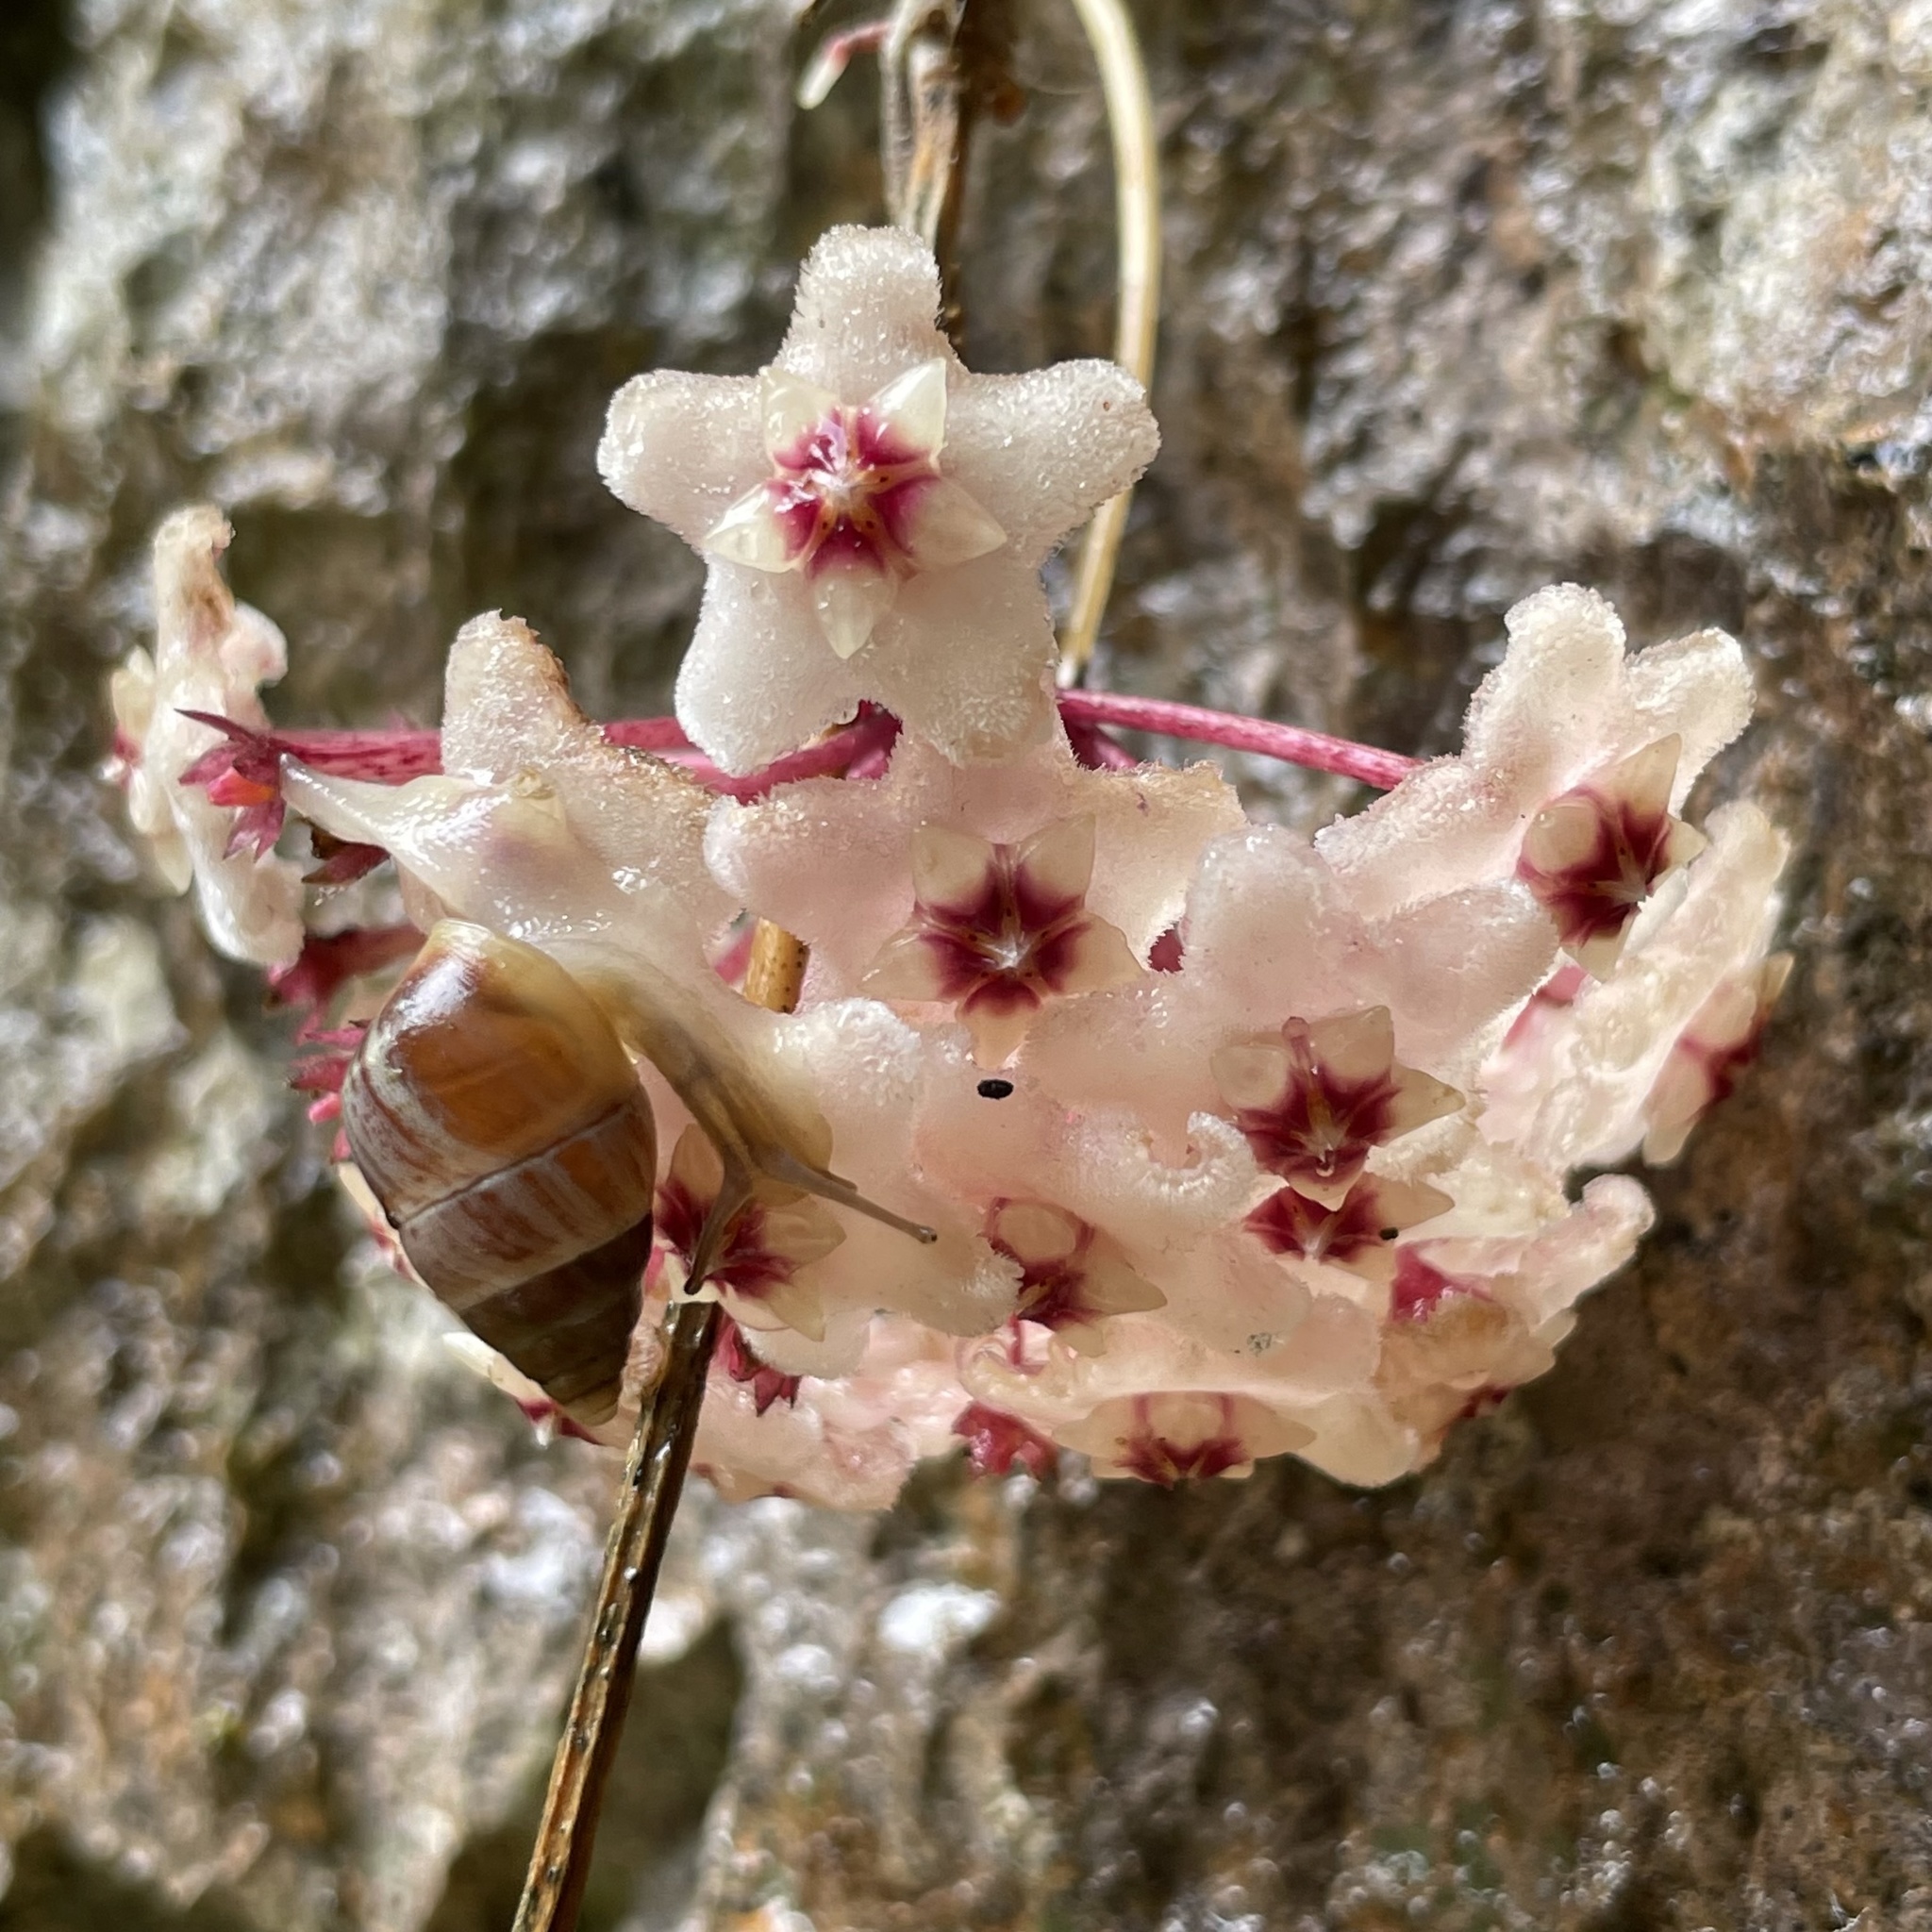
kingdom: Animalia
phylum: Mollusca
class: Gastropoda
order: Stylommatophora
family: Enidae
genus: Luchuena
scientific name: Luchuena reticulata
